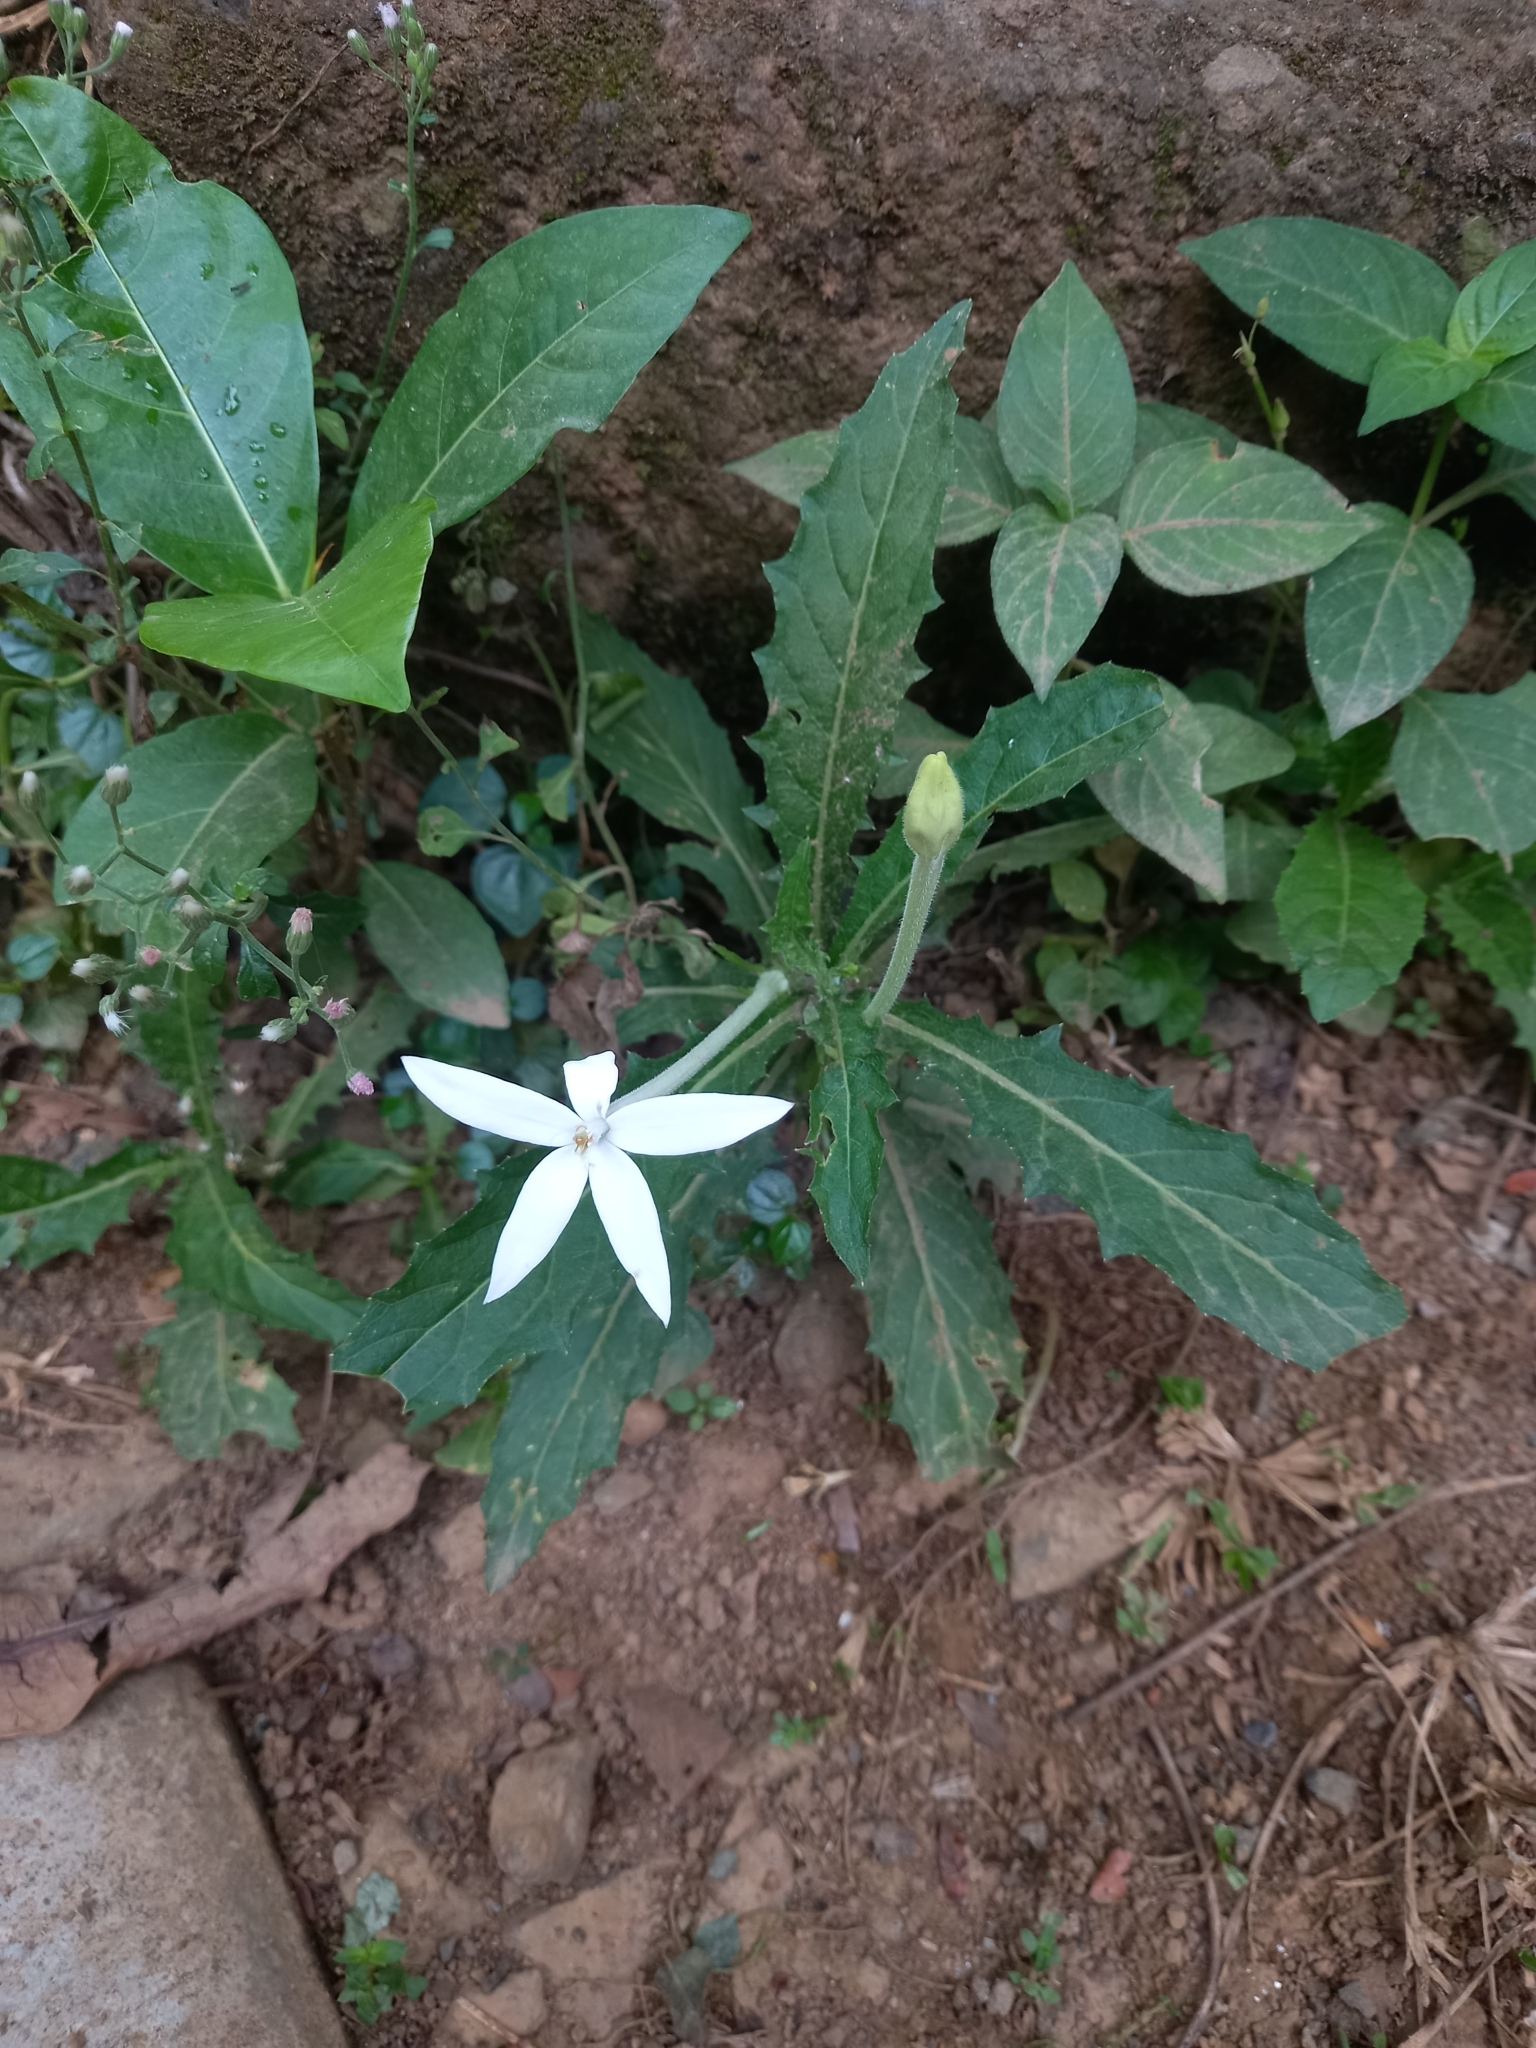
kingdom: Plantae
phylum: Tracheophyta
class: Magnoliopsida
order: Asterales
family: Campanulaceae
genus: Hippobroma
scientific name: Hippobroma longiflora
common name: Madamfate
